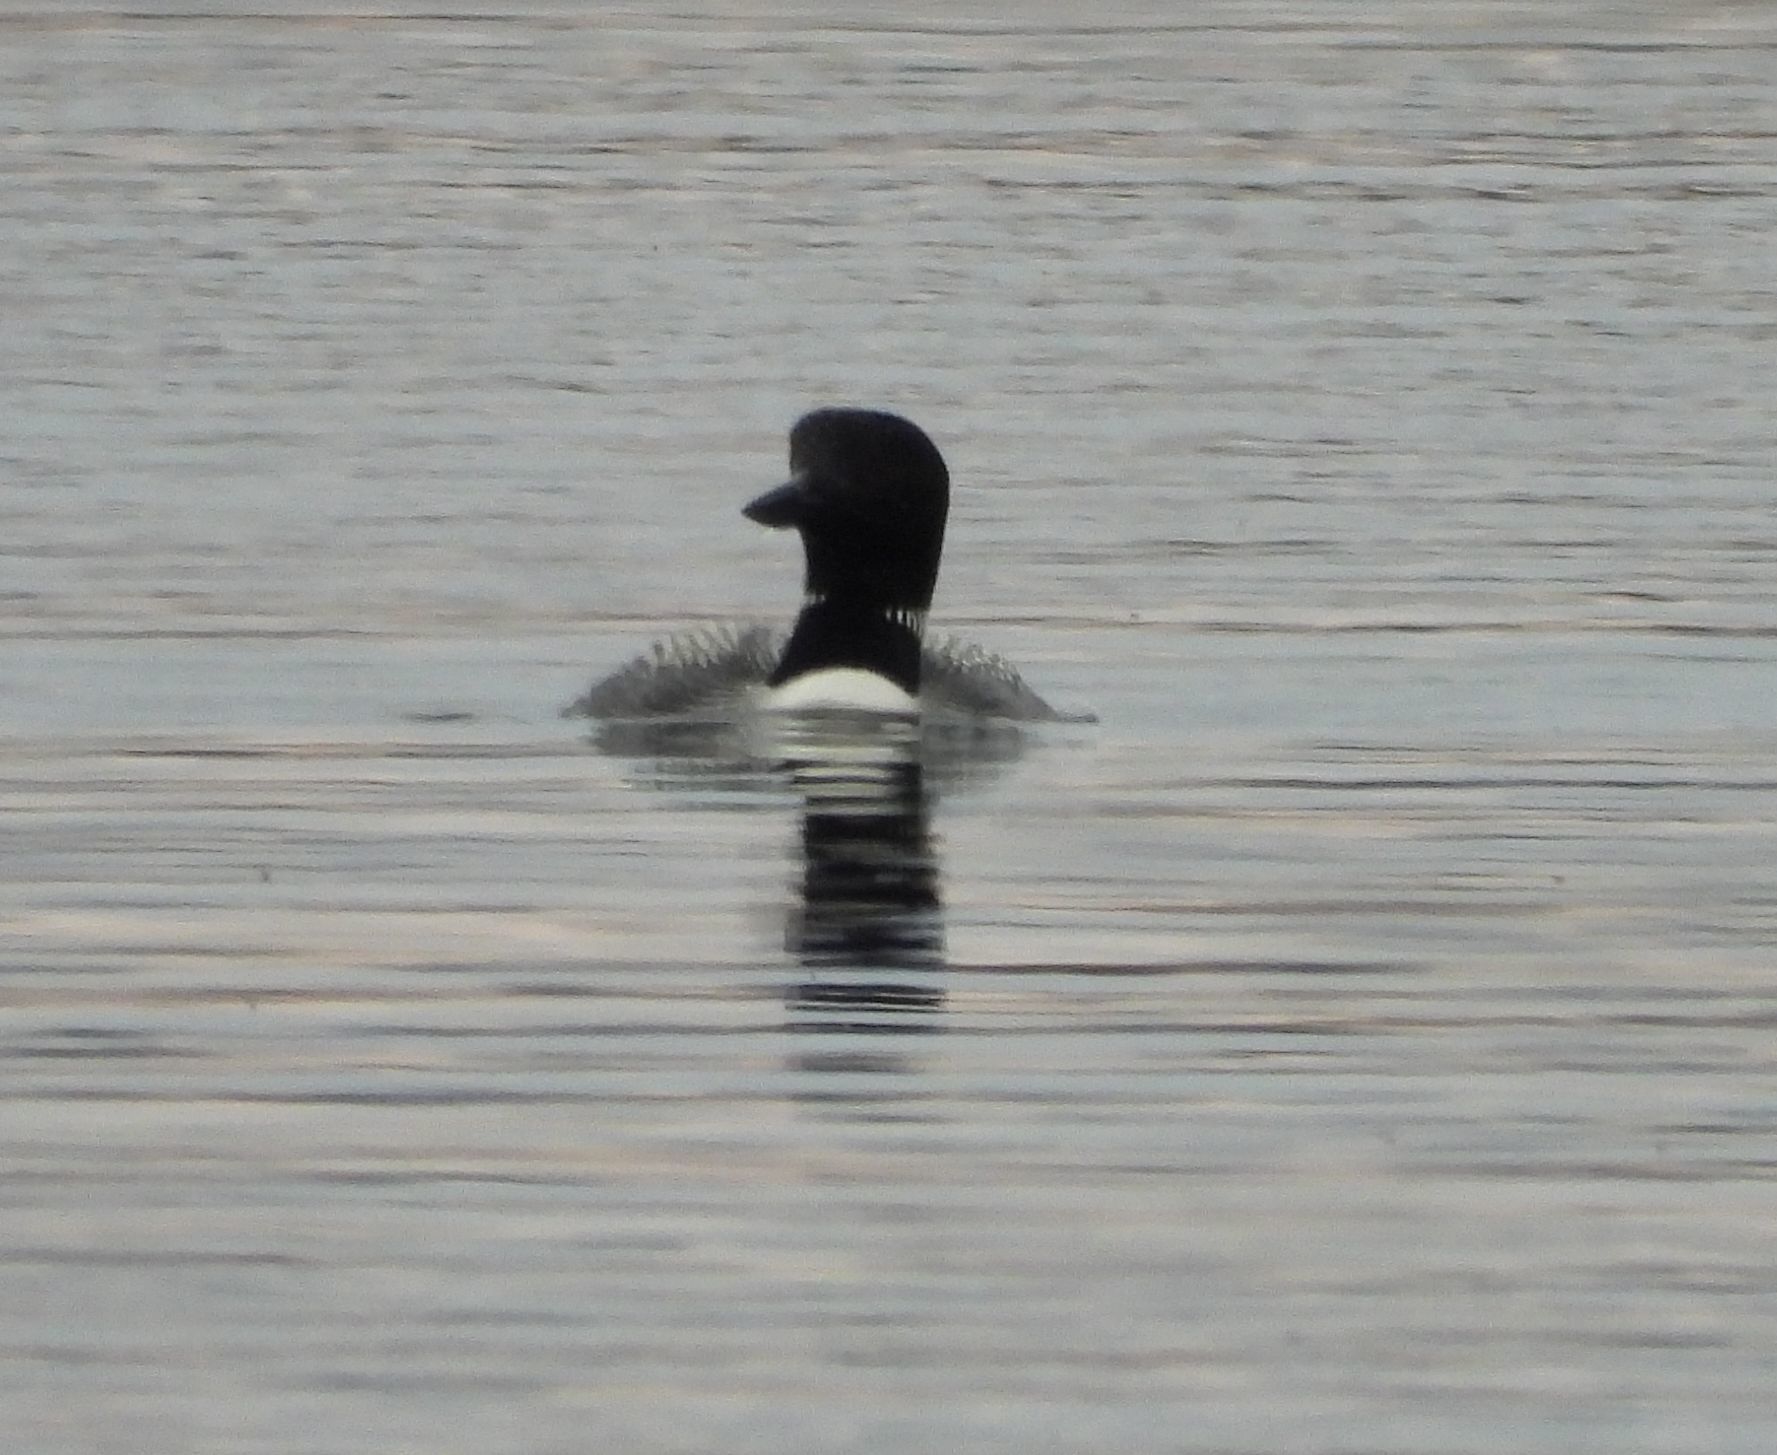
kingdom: Animalia
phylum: Chordata
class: Aves
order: Gaviiformes
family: Gaviidae
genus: Gavia
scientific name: Gavia immer
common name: Common loon
